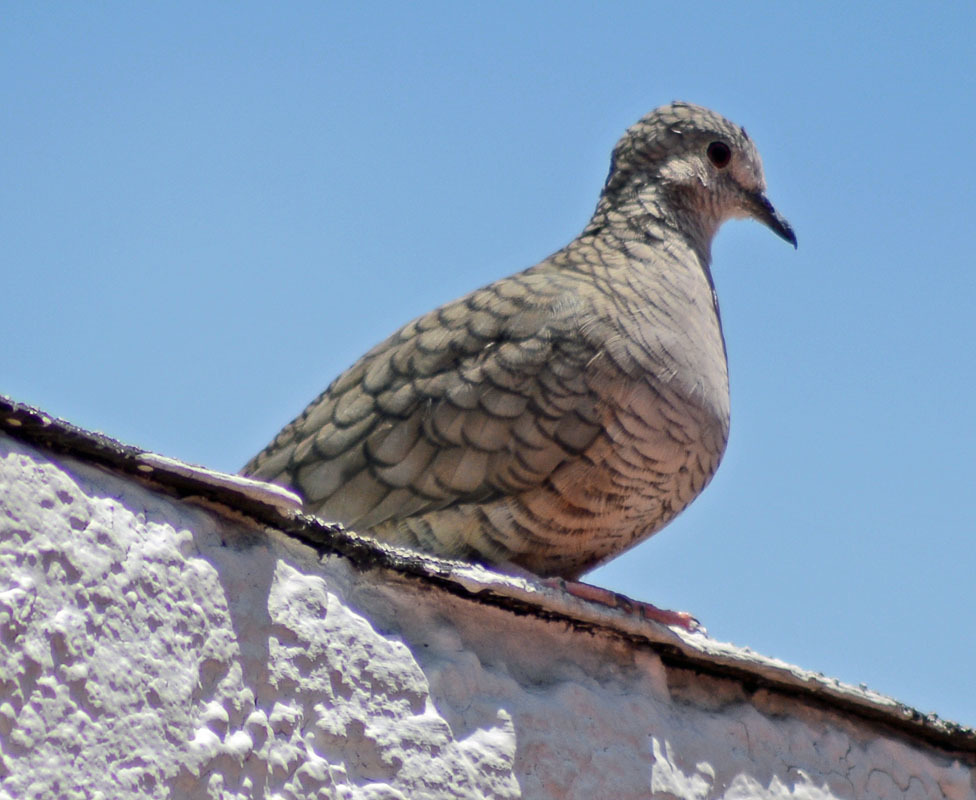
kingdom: Animalia
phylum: Chordata
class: Aves
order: Columbiformes
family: Columbidae
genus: Columbina
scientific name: Columbina inca
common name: Inca dove
